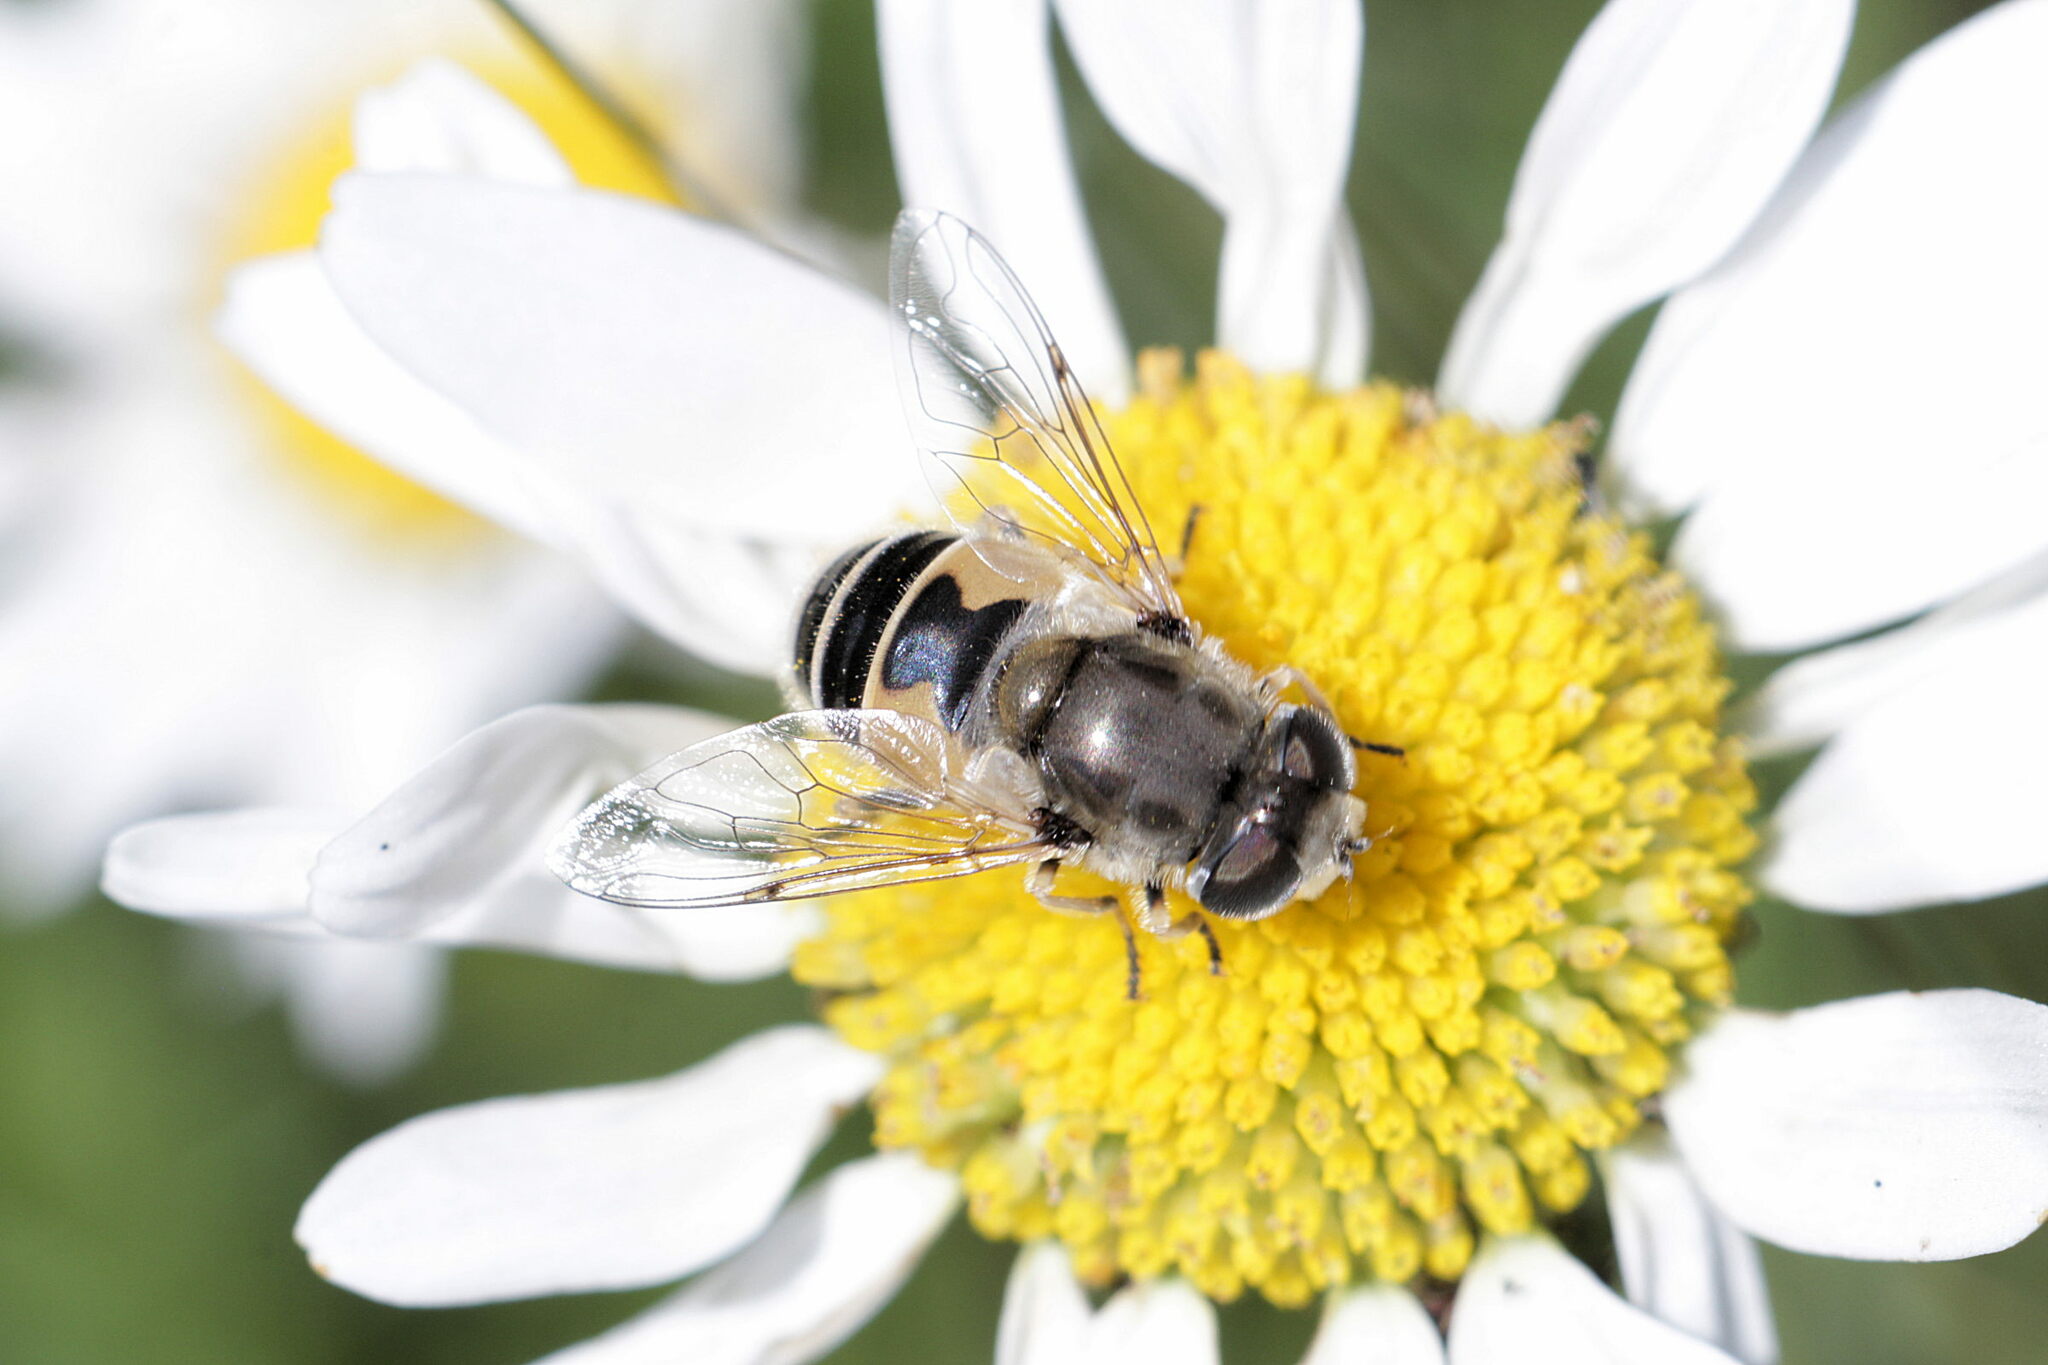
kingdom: Animalia
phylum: Arthropoda
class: Insecta
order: Diptera
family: Syrphidae
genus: Eristalis
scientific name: Eristalis arbustorum
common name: Hover fly
